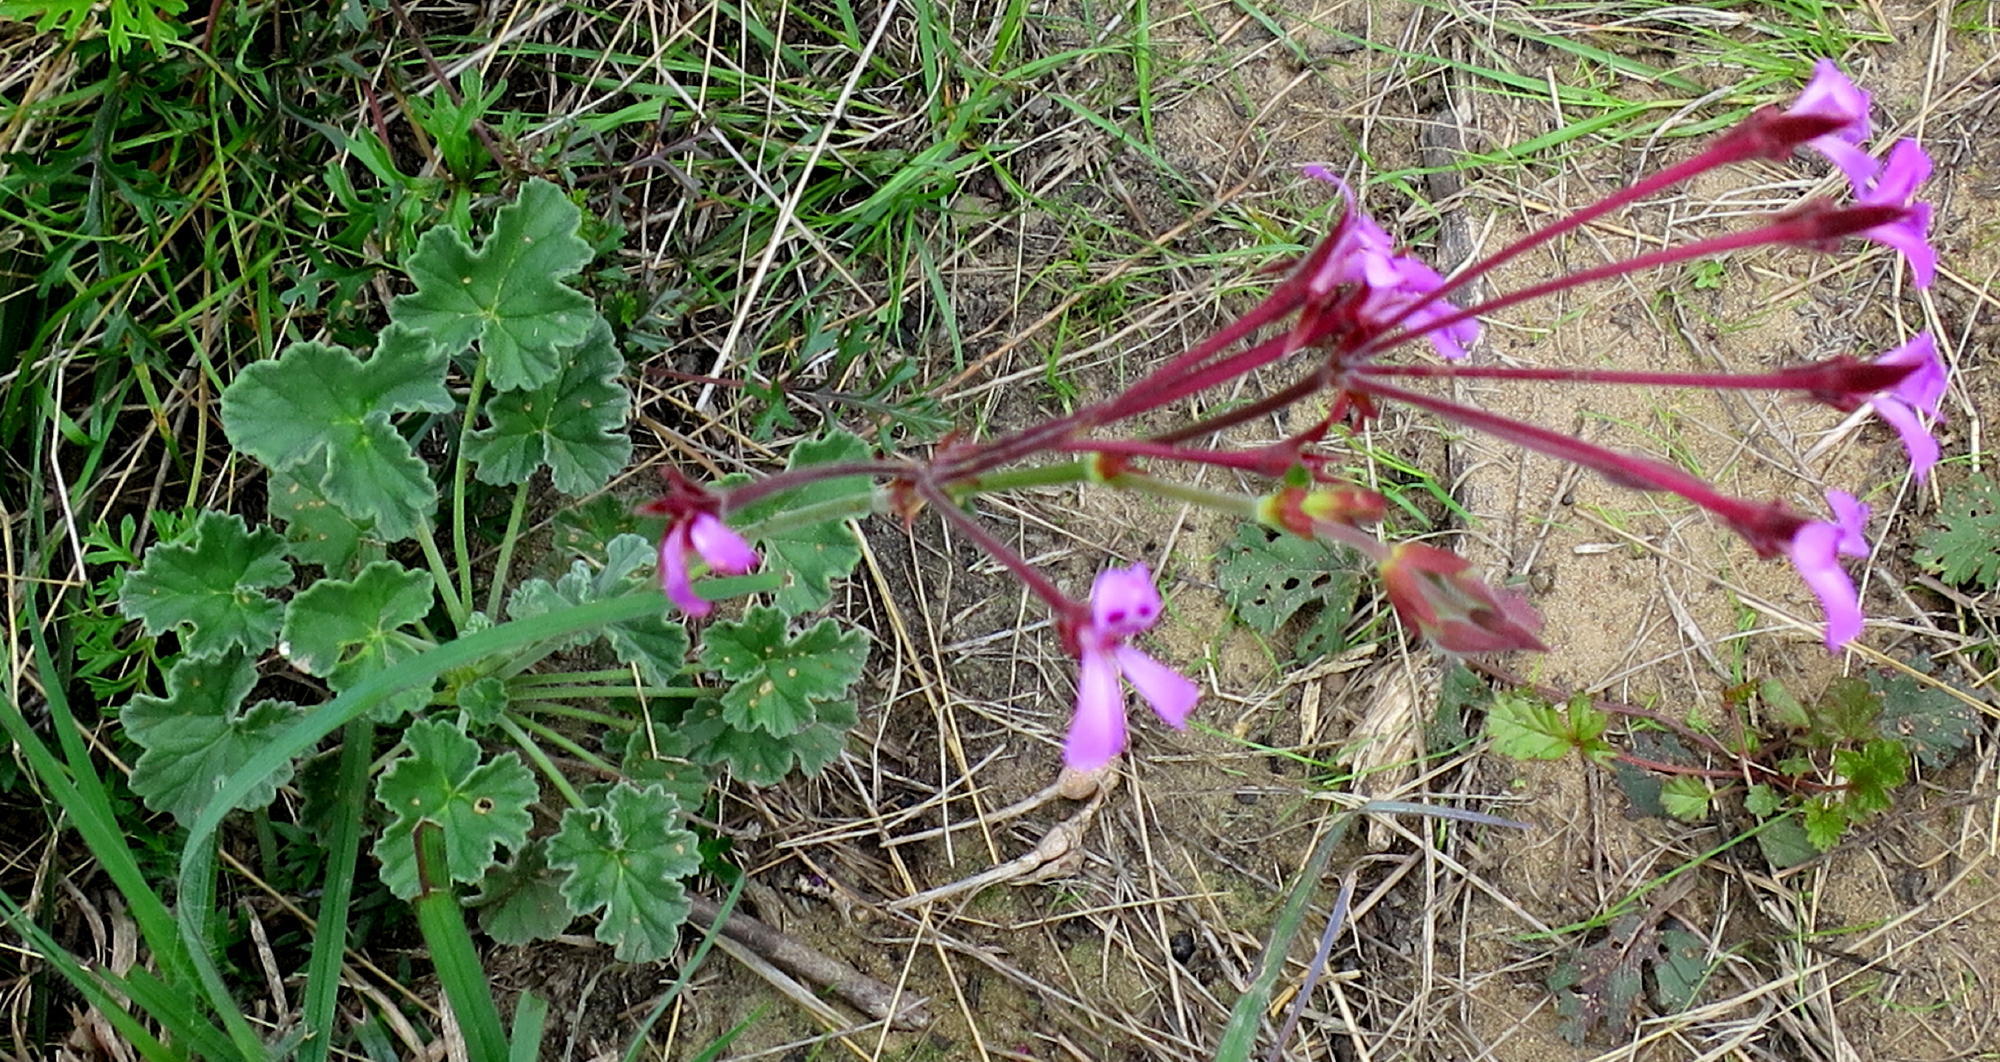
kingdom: Plantae
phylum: Tracheophyta
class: Magnoliopsida
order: Geraniales
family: Geraniaceae
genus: Pelargonium
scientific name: Pelargonium reniforme
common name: Kidney-leaf pelargonium
